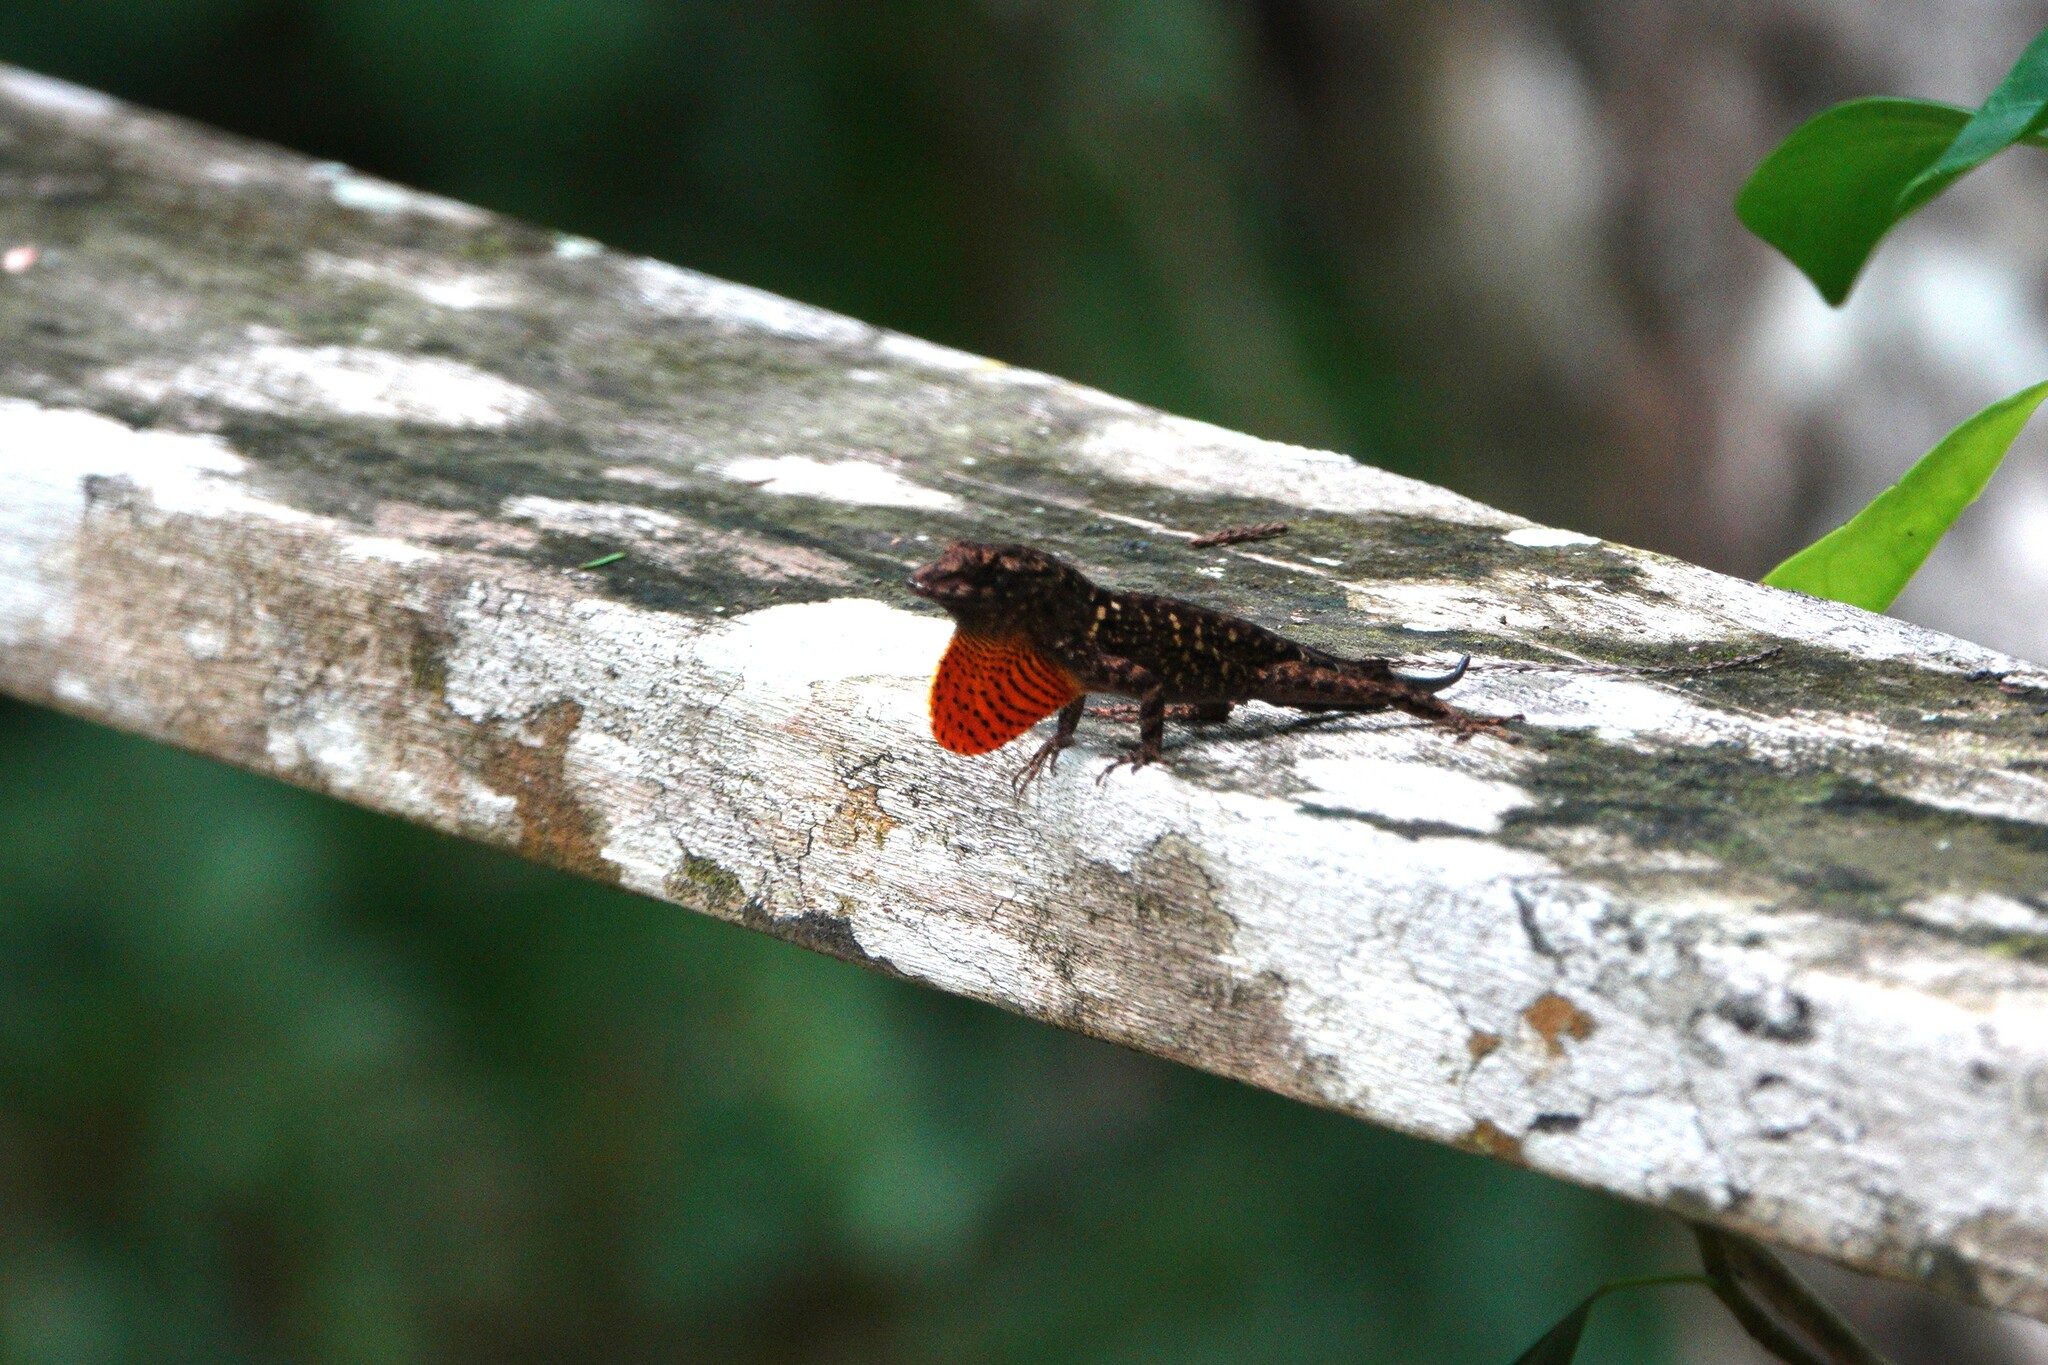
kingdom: Animalia
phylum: Chordata
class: Squamata
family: Dactyloidae
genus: Anolis
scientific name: Anolis sagrei
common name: Brown anole
